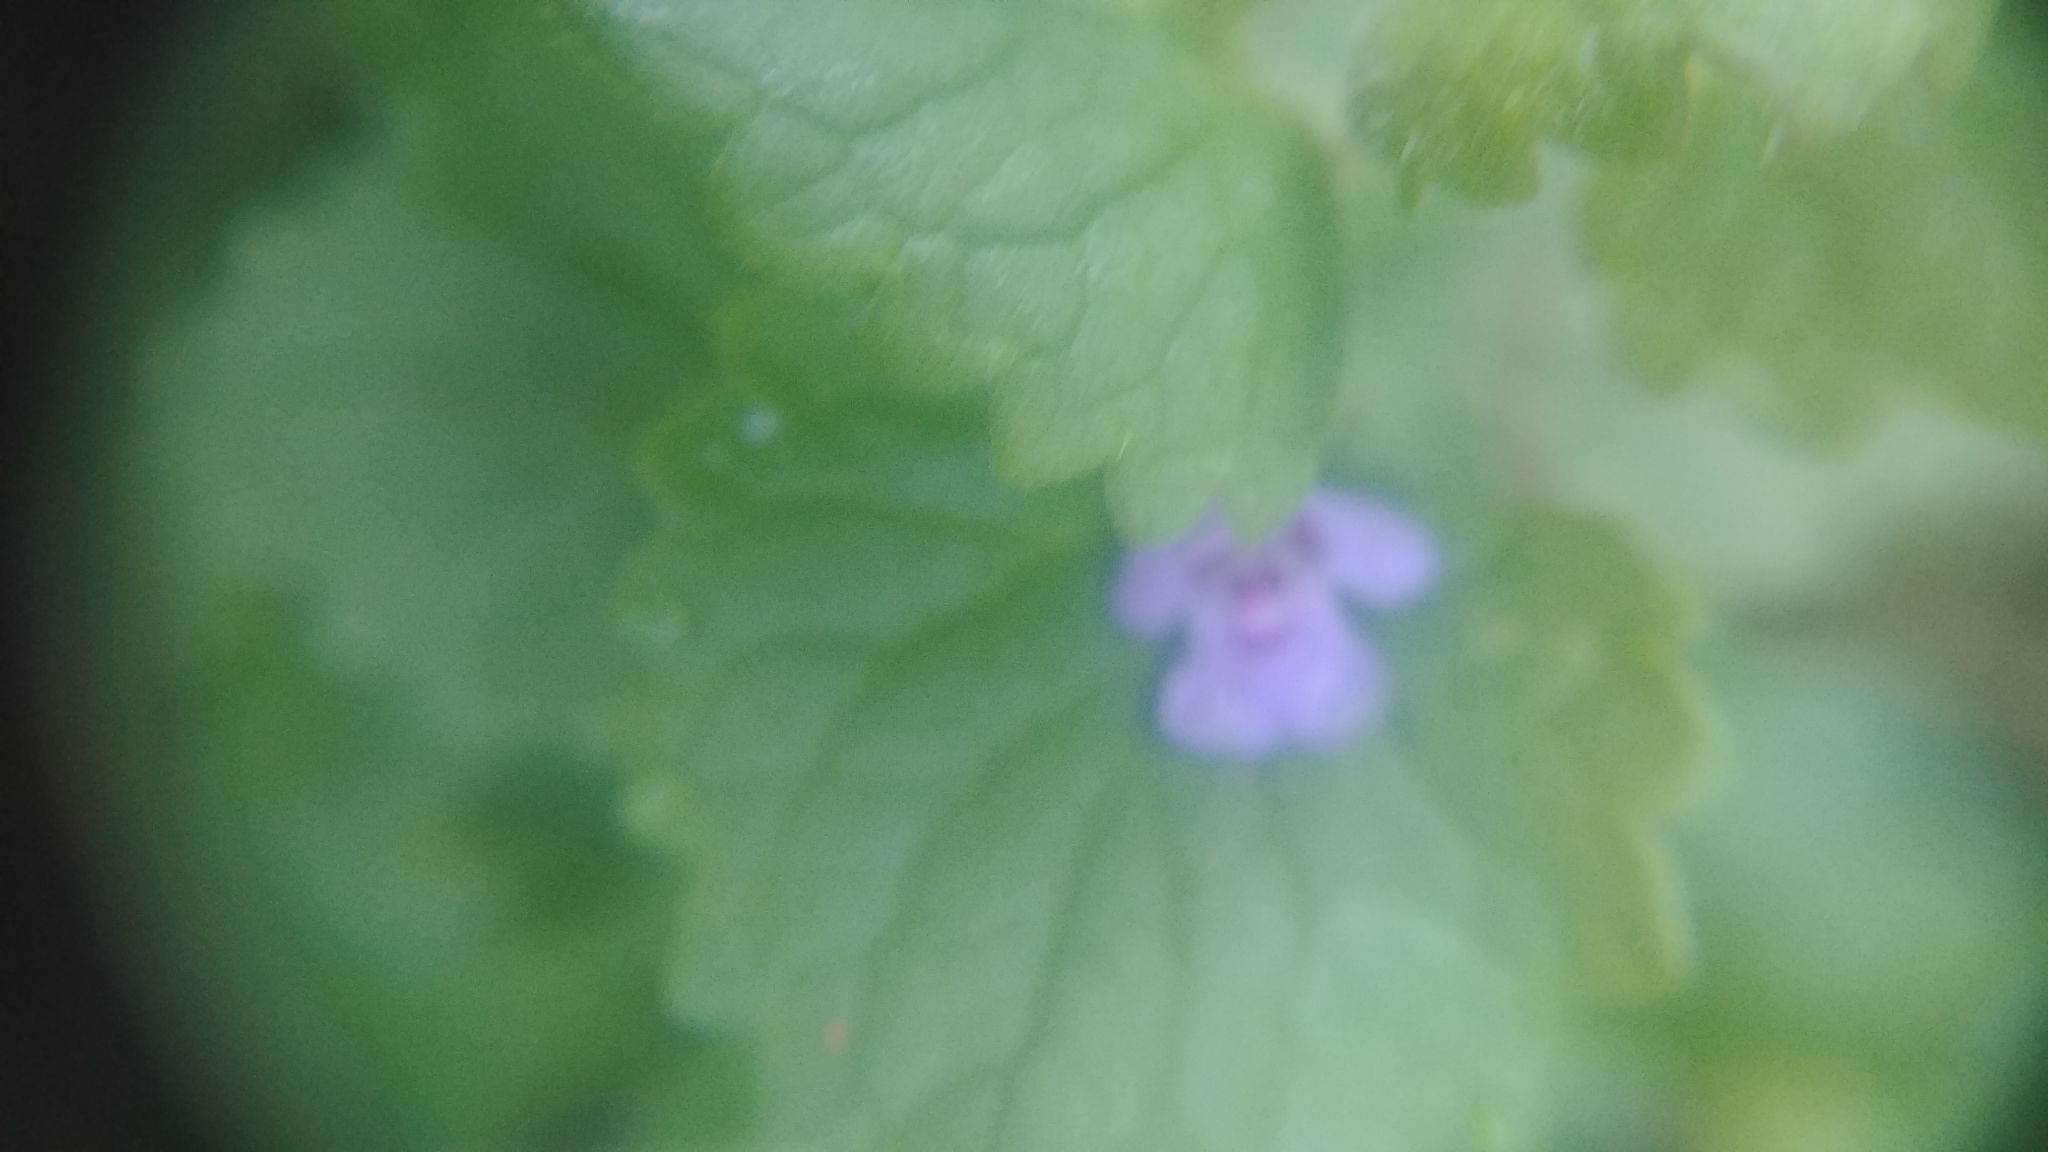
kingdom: Plantae
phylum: Tracheophyta
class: Magnoliopsida
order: Lamiales
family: Lamiaceae
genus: Glechoma
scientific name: Glechoma hederacea
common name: Ground ivy
